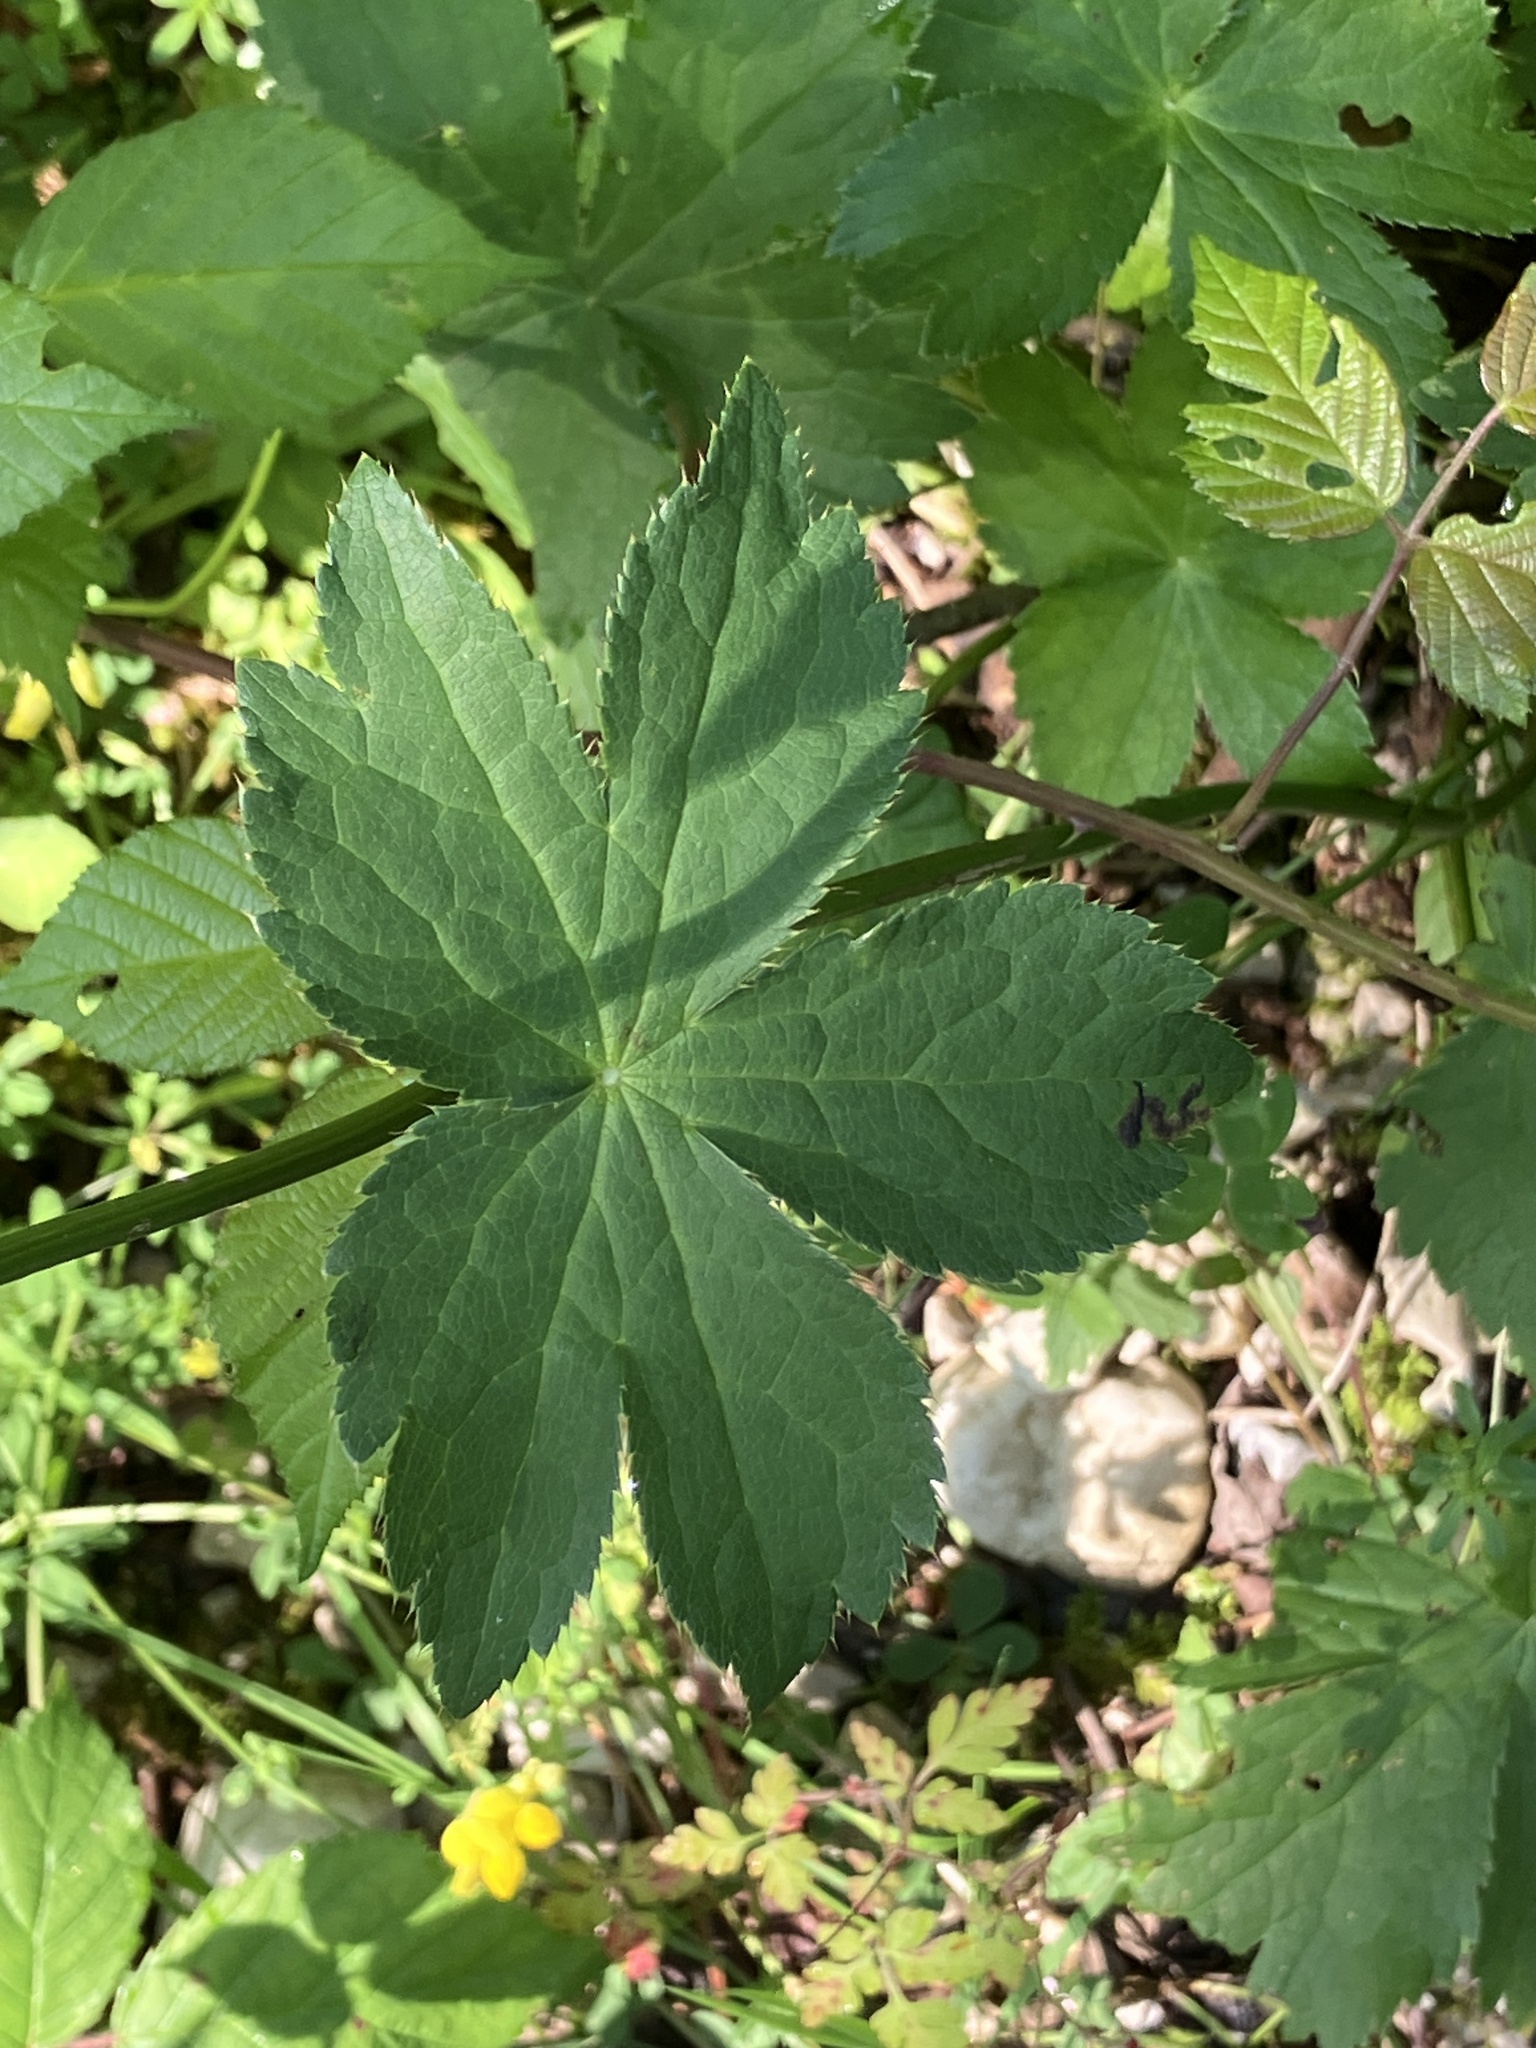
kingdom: Plantae
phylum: Tracheophyta
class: Magnoliopsida
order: Apiales
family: Apiaceae
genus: Astrantia
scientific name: Astrantia major
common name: Greater masterwort
